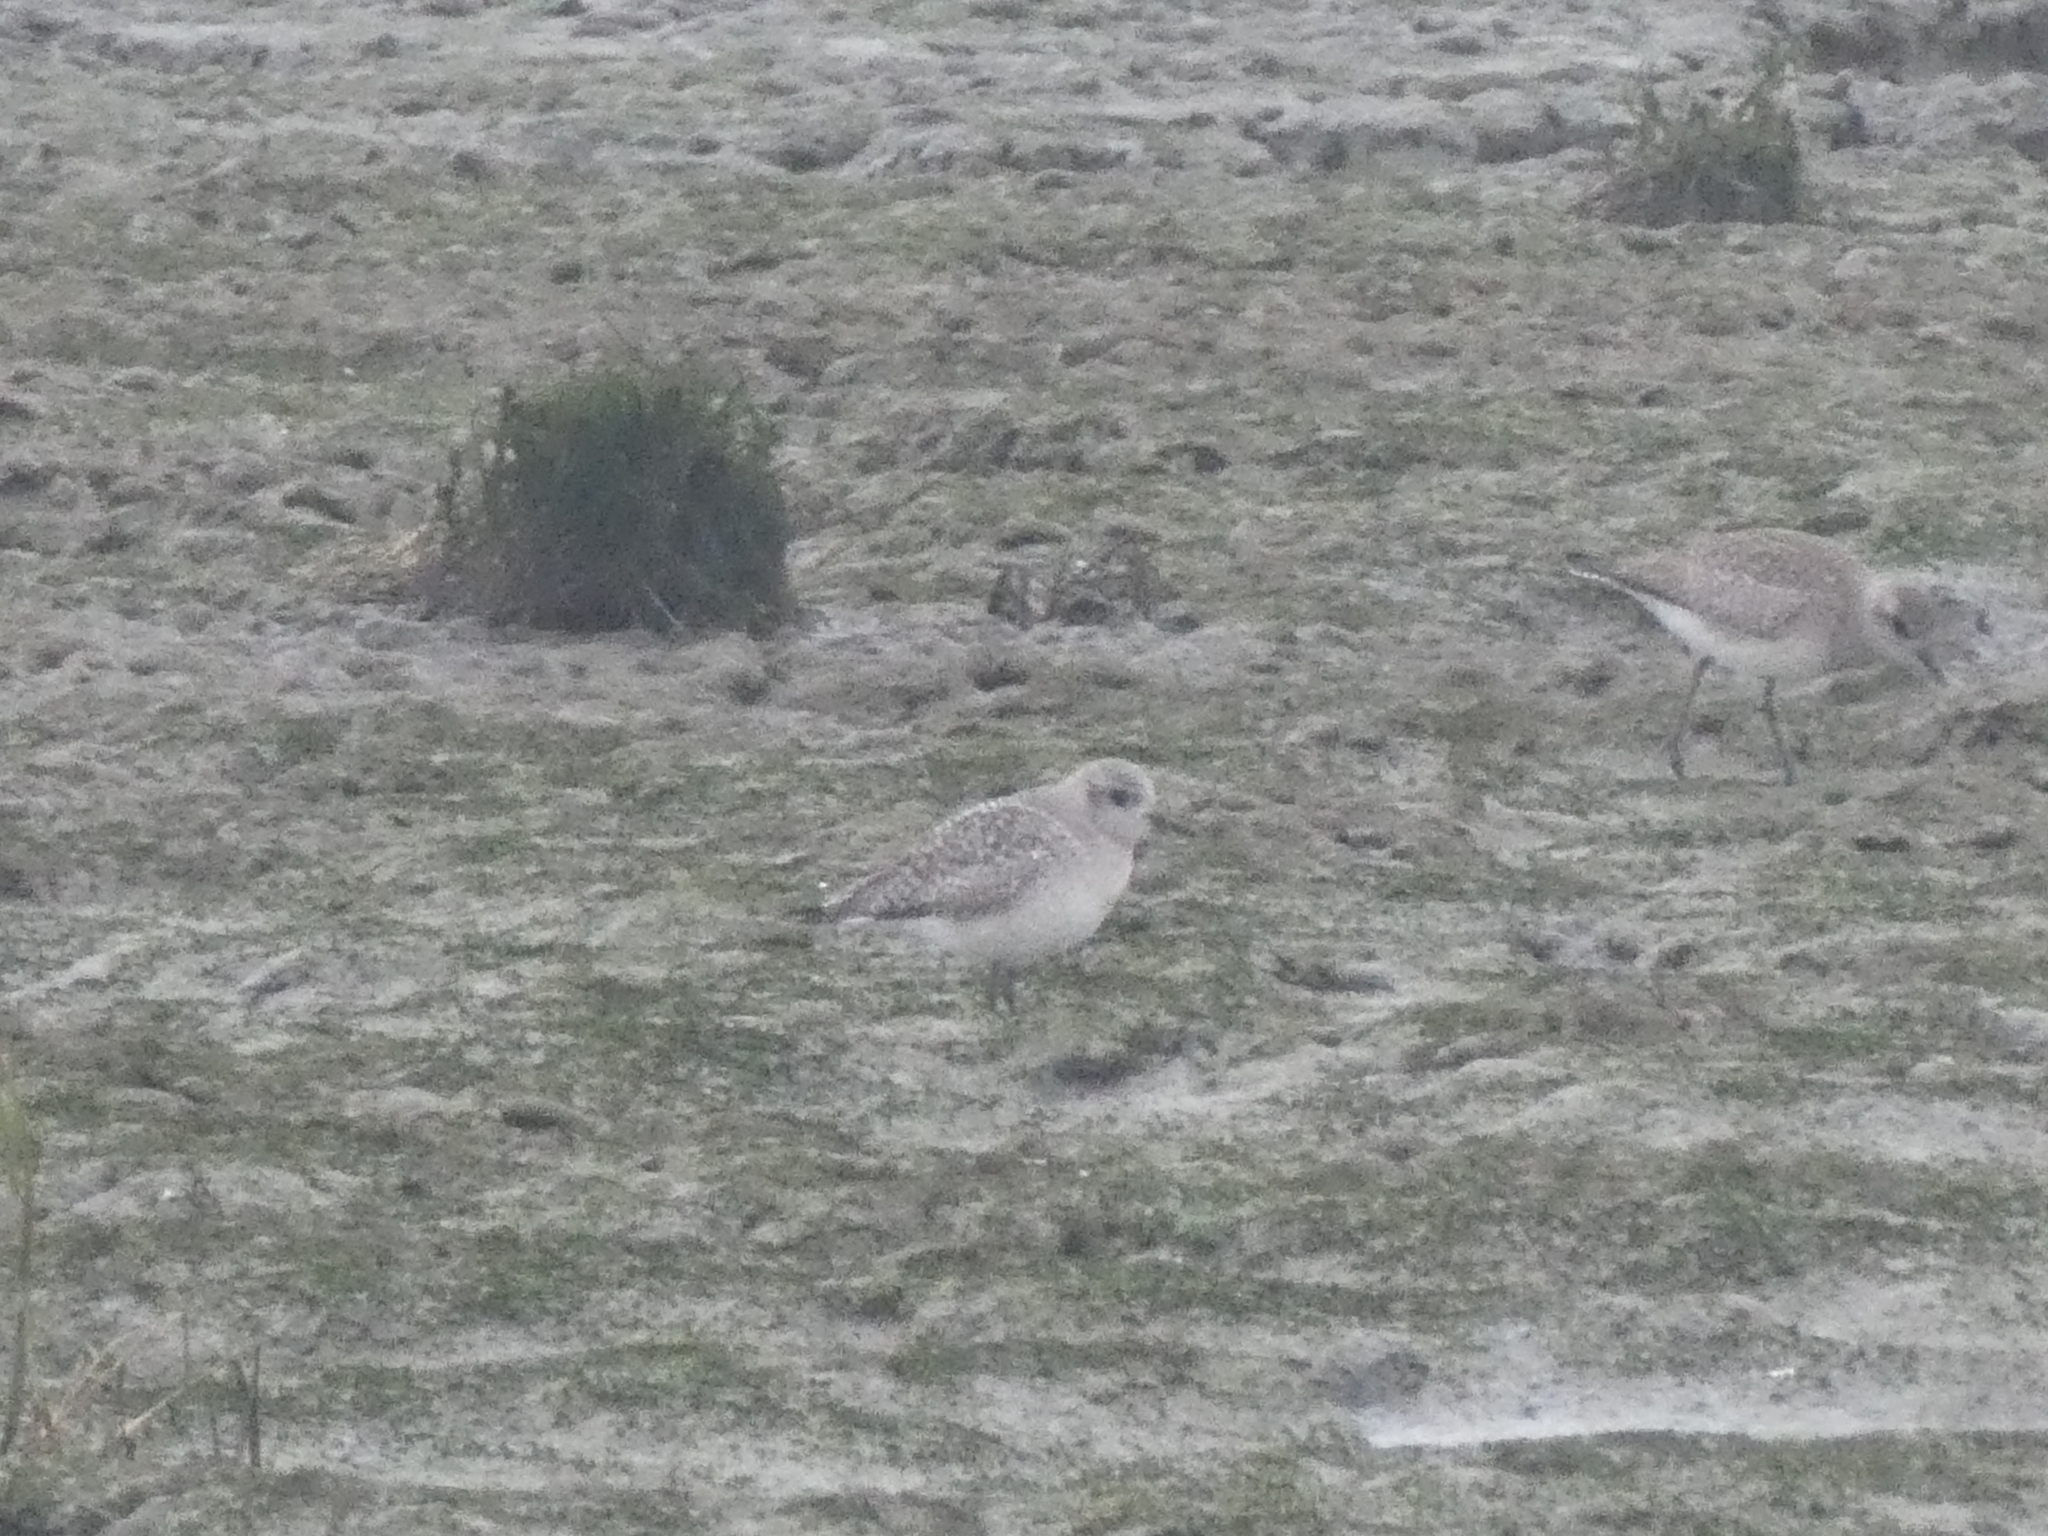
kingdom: Animalia
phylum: Chordata
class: Aves
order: Charadriiformes
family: Charadriidae
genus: Pluvialis
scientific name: Pluvialis squatarola
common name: Grey plover
